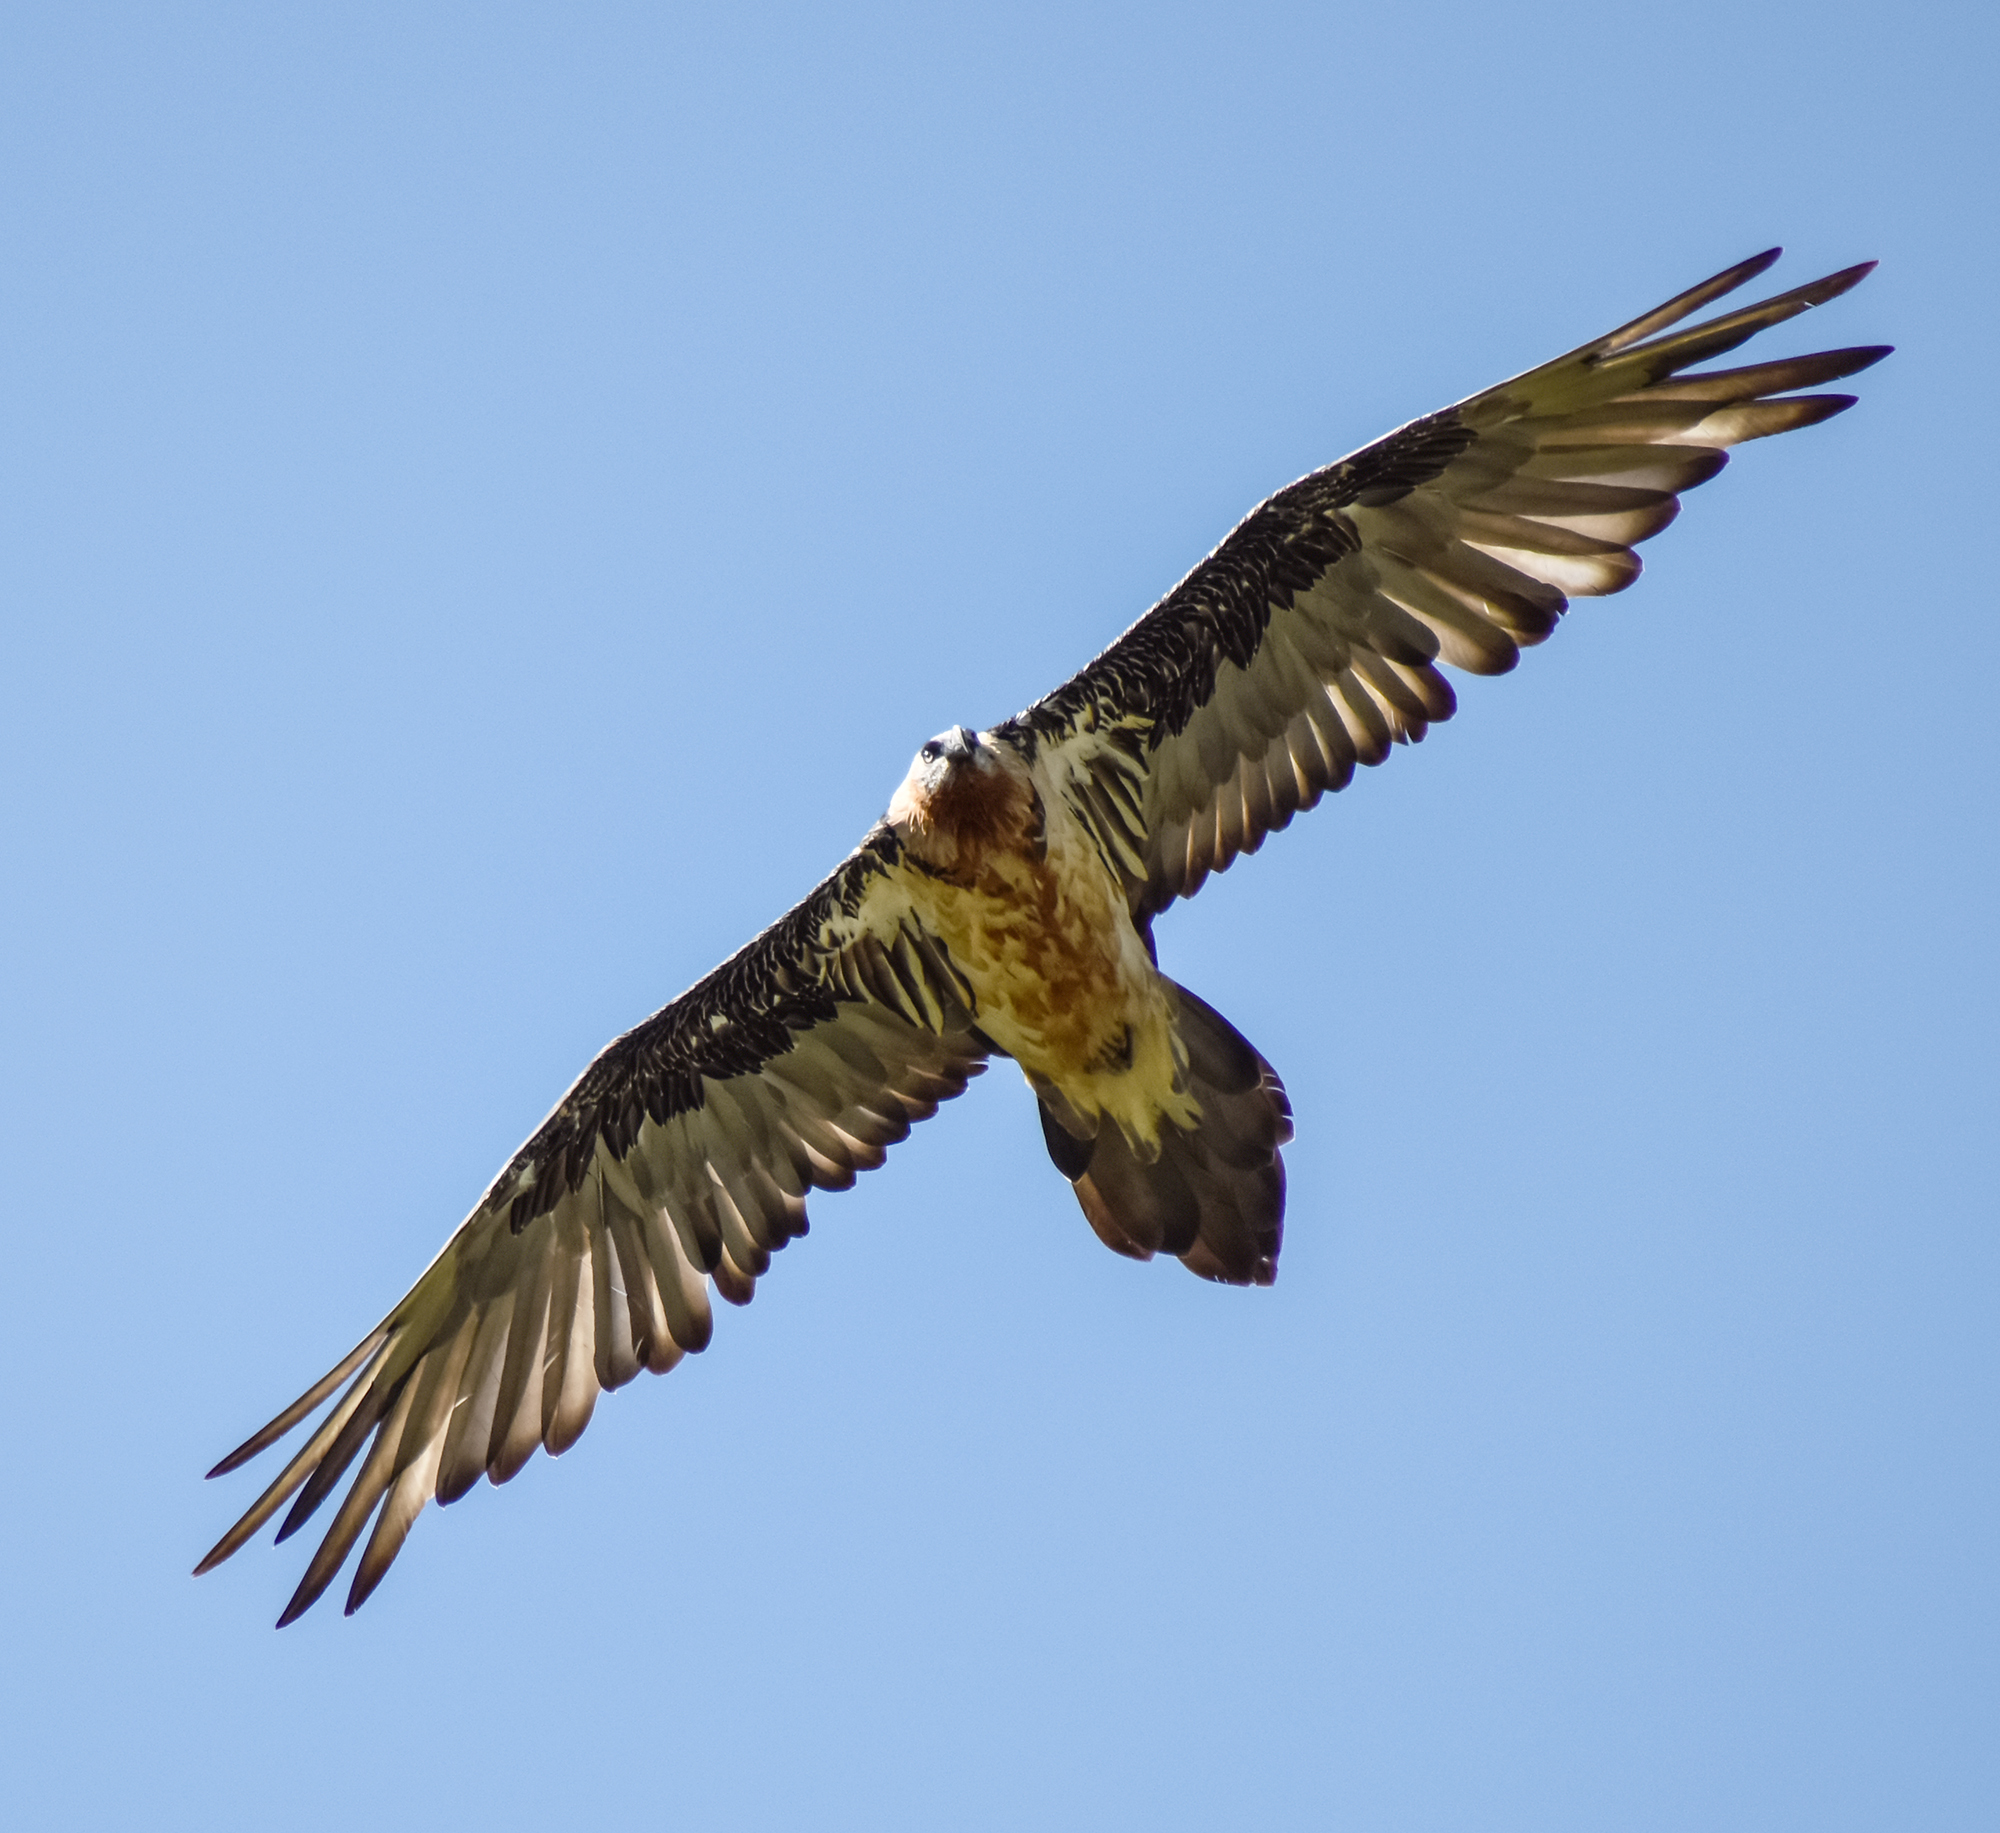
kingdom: Animalia
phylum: Chordata
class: Aves
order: Accipitriformes
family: Accipitridae
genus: Gypaetus
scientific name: Gypaetus barbatus
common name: Bearded vulture
